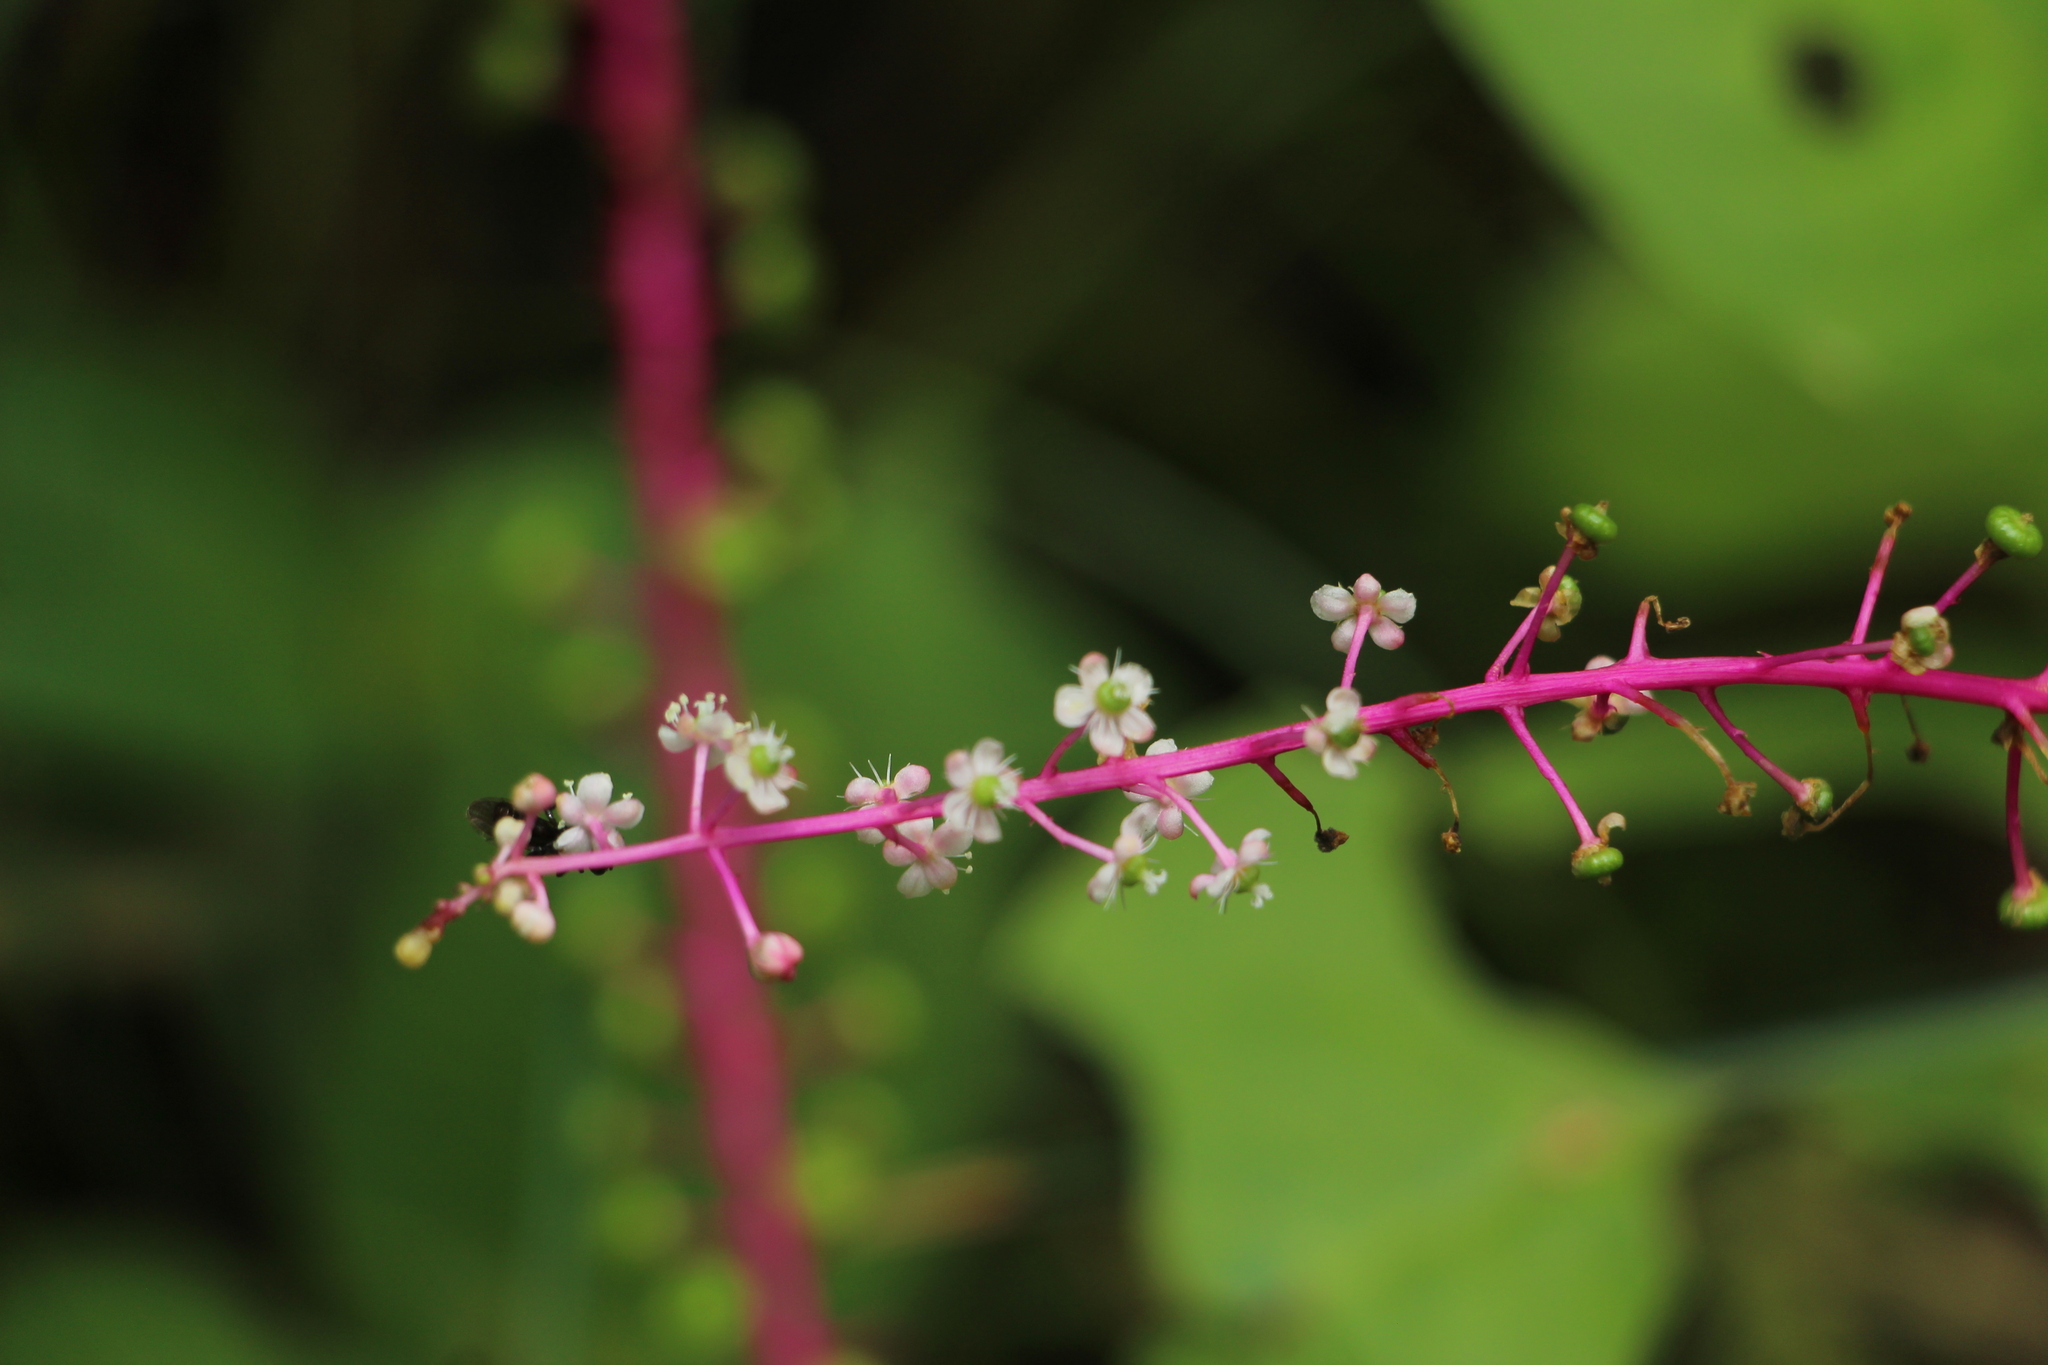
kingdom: Plantae
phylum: Tracheophyta
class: Magnoliopsida
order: Caryophyllales
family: Phytolaccaceae
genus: Phytolacca
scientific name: Phytolacca rivinoides
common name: Venezuelan pokeweed
